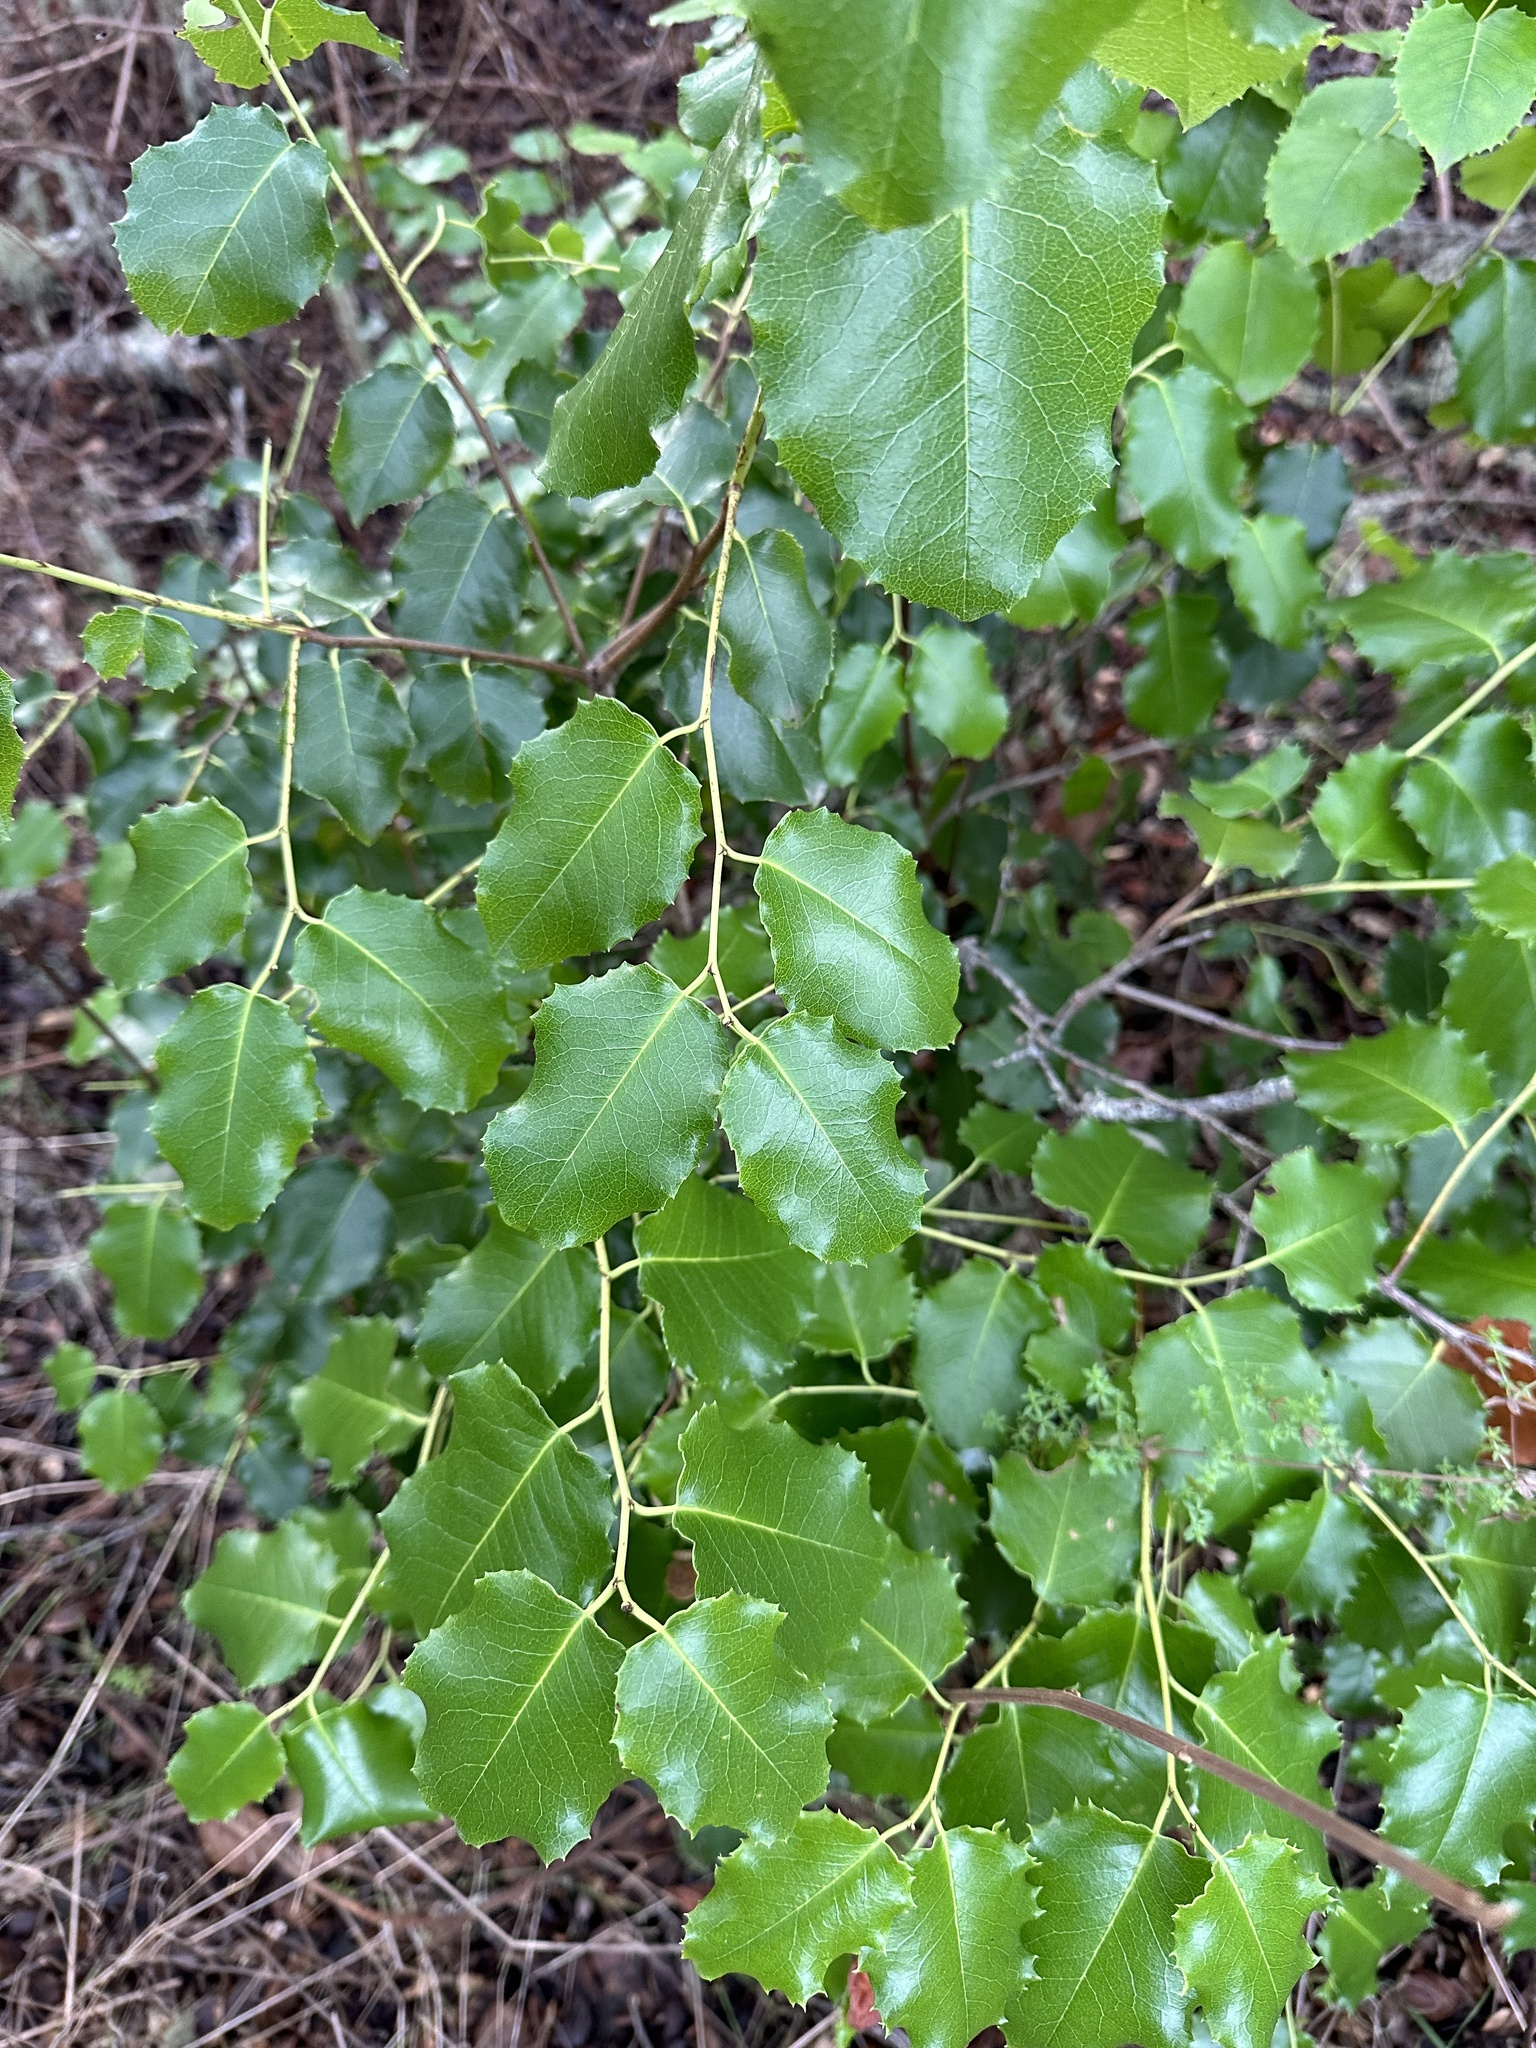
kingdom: Plantae
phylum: Tracheophyta
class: Magnoliopsida
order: Rosales
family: Rosaceae
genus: Prunus
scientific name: Prunus ilicifolia
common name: Hollyleaf cherry
